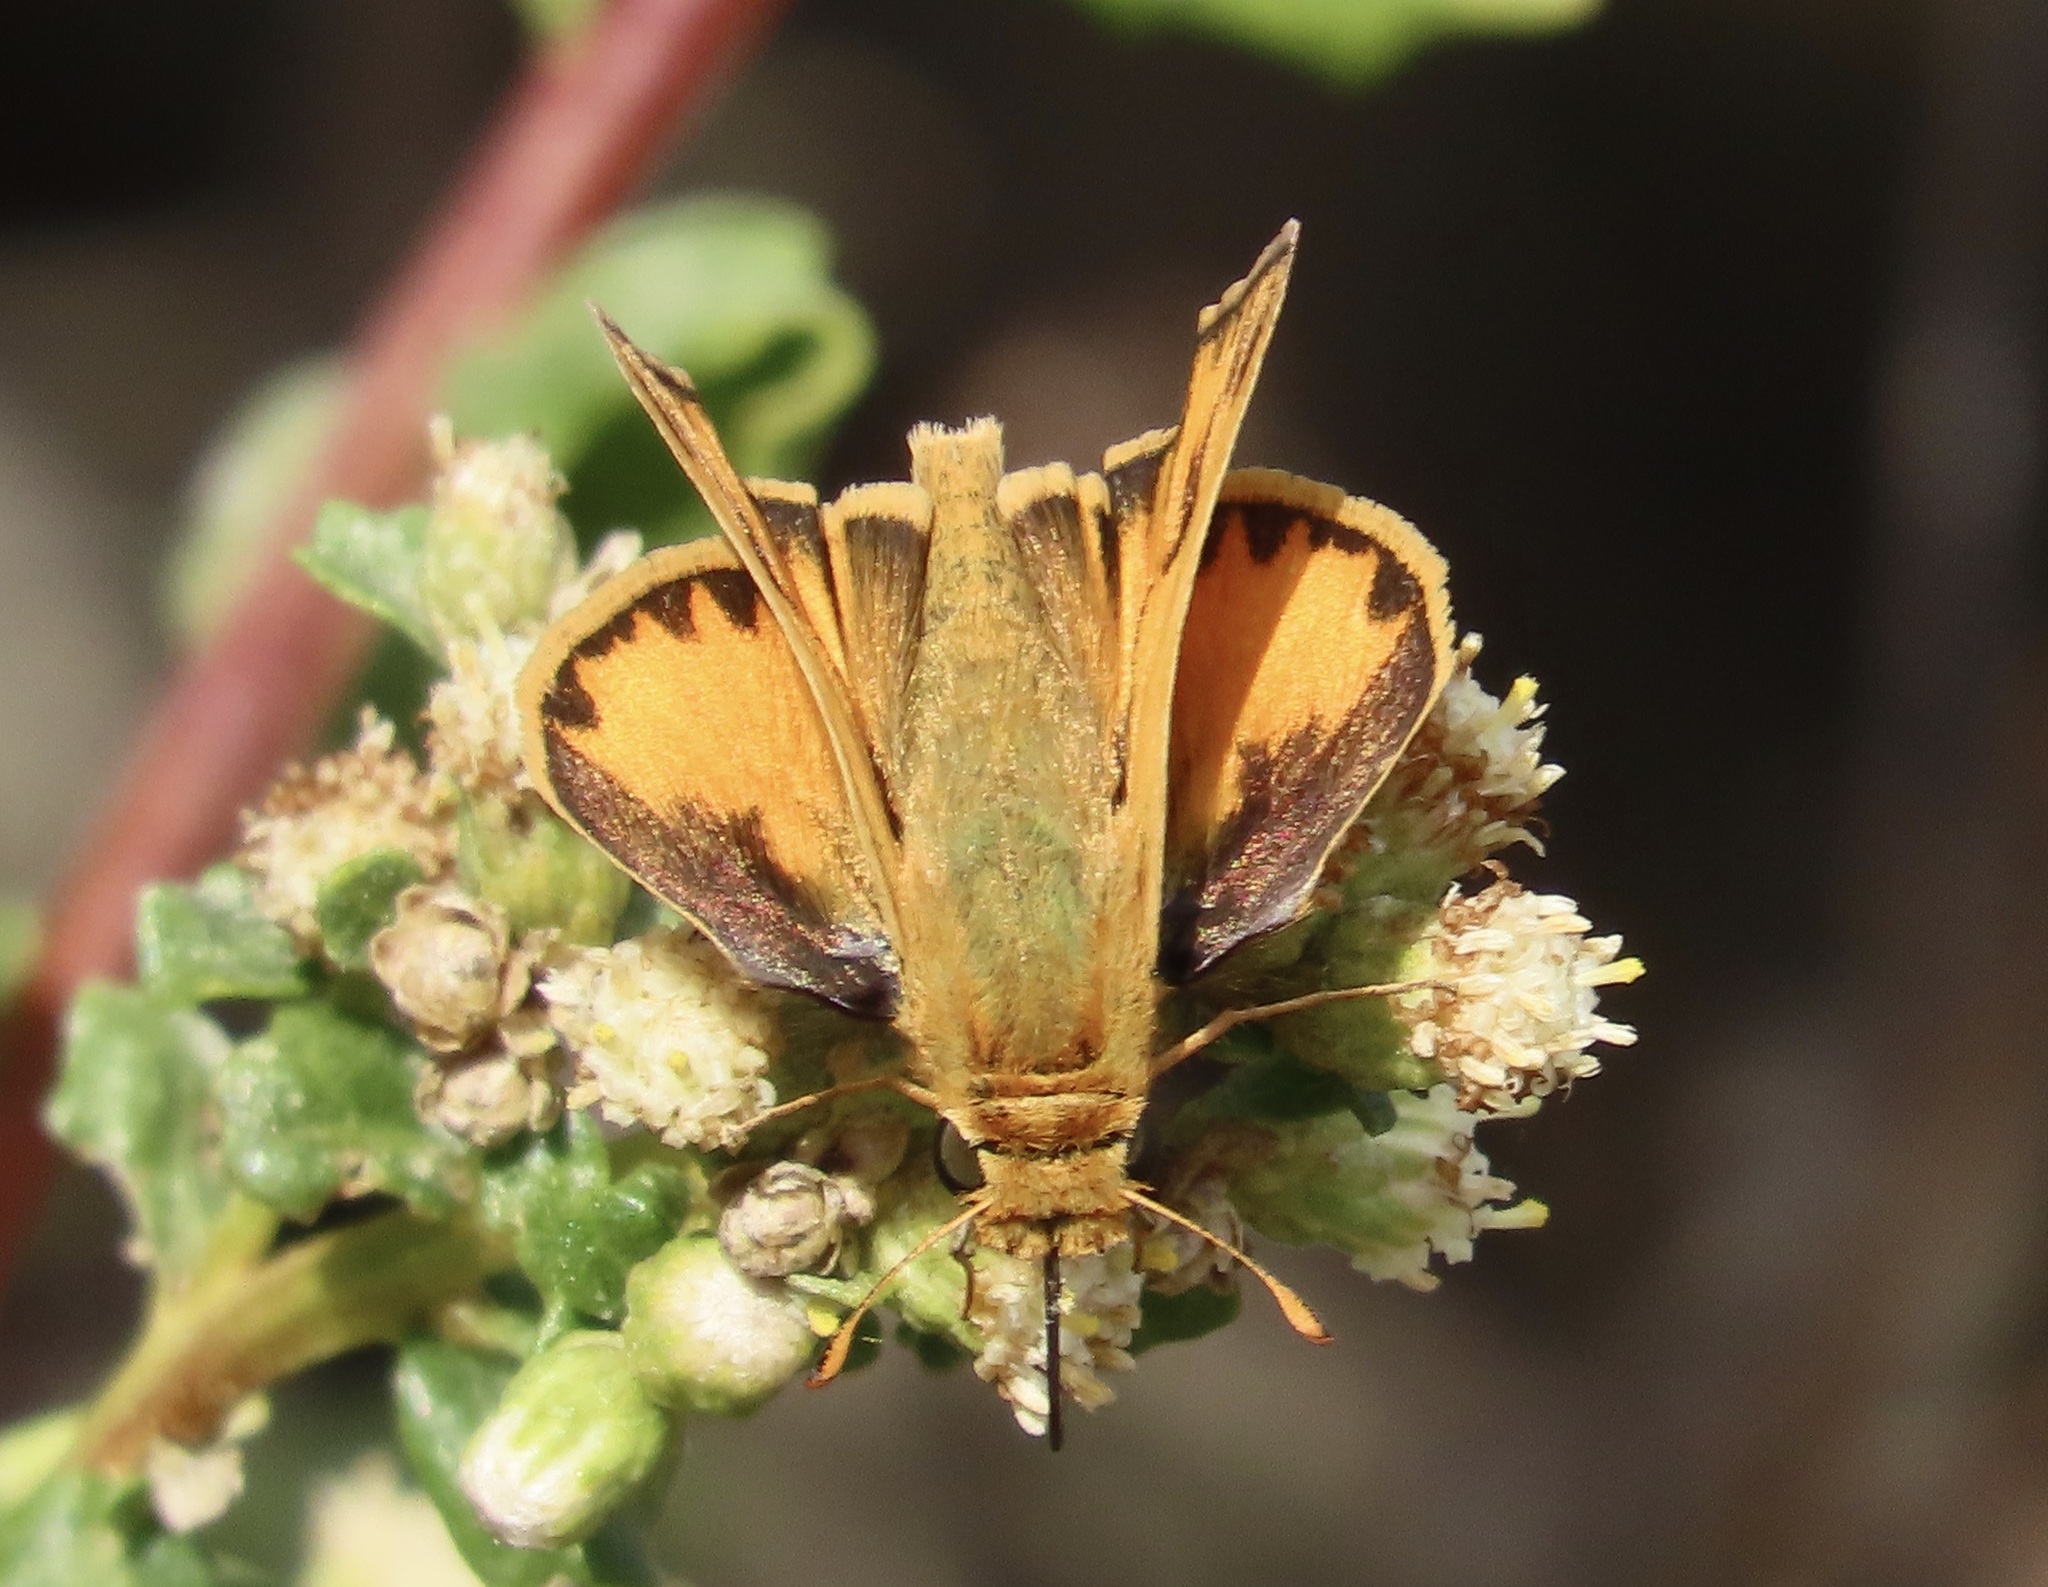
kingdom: Animalia
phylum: Arthropoda
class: Insecta
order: Lepidoptera
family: Hesperiidae
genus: Hylephila
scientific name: Hylephila phyleus
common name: Fiery skipper
